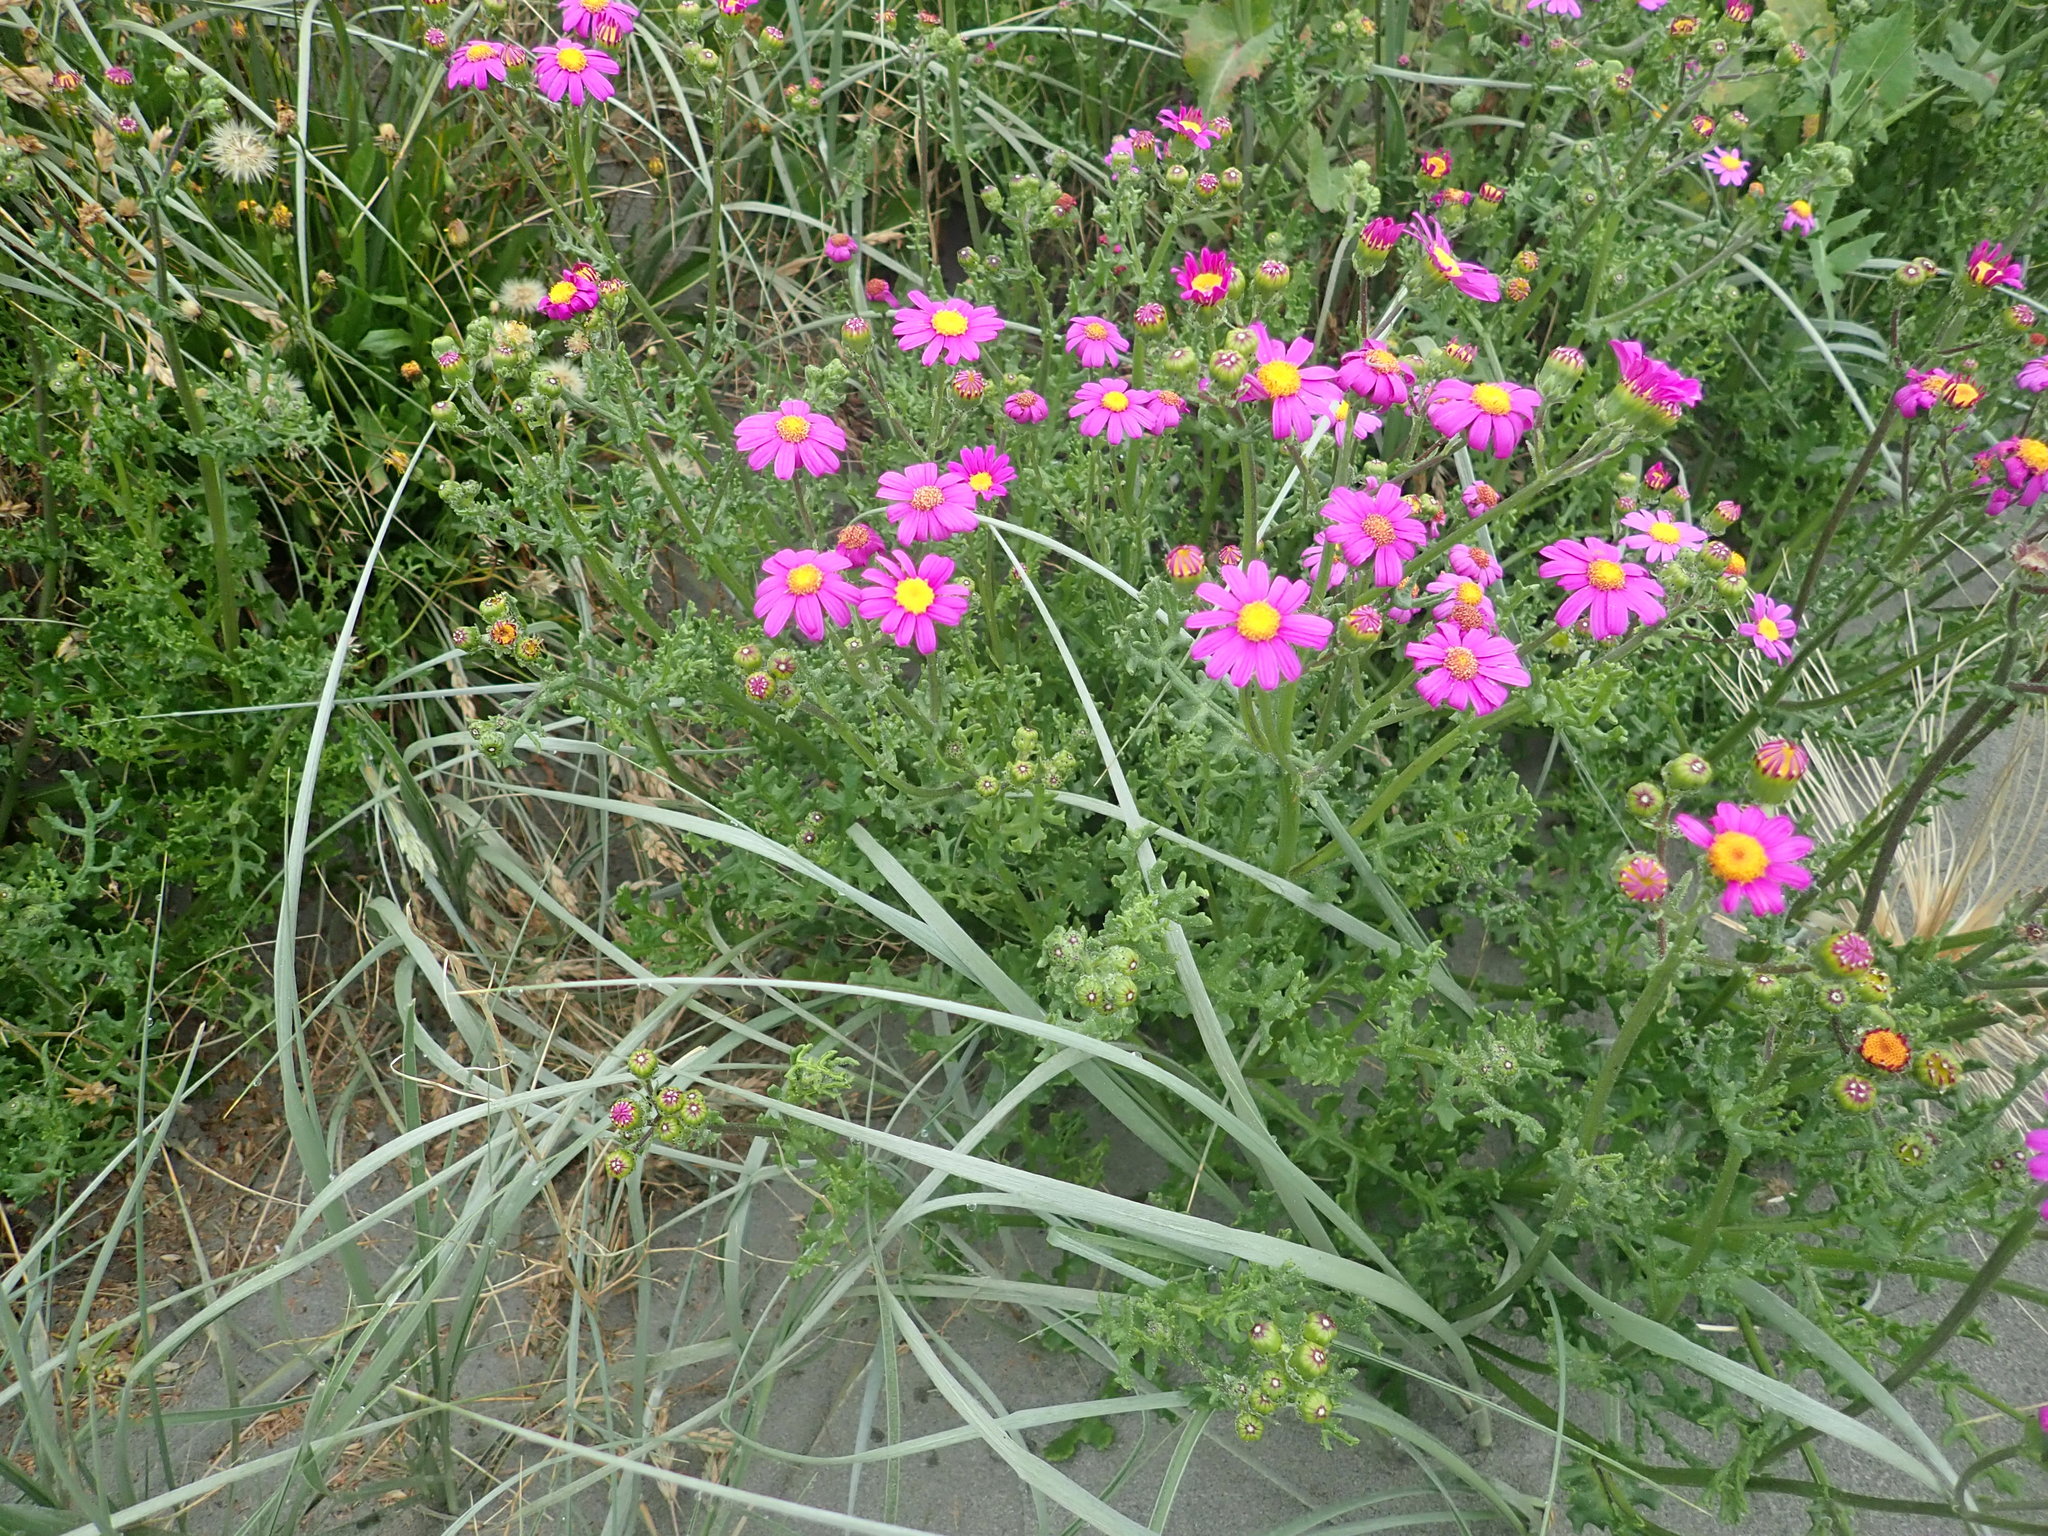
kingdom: Plantae
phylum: Tracheophyta
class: Magnoliopsida
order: Asterales
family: Asteraceae
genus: Senecio
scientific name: Senecio elegans
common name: Purple groundsel
